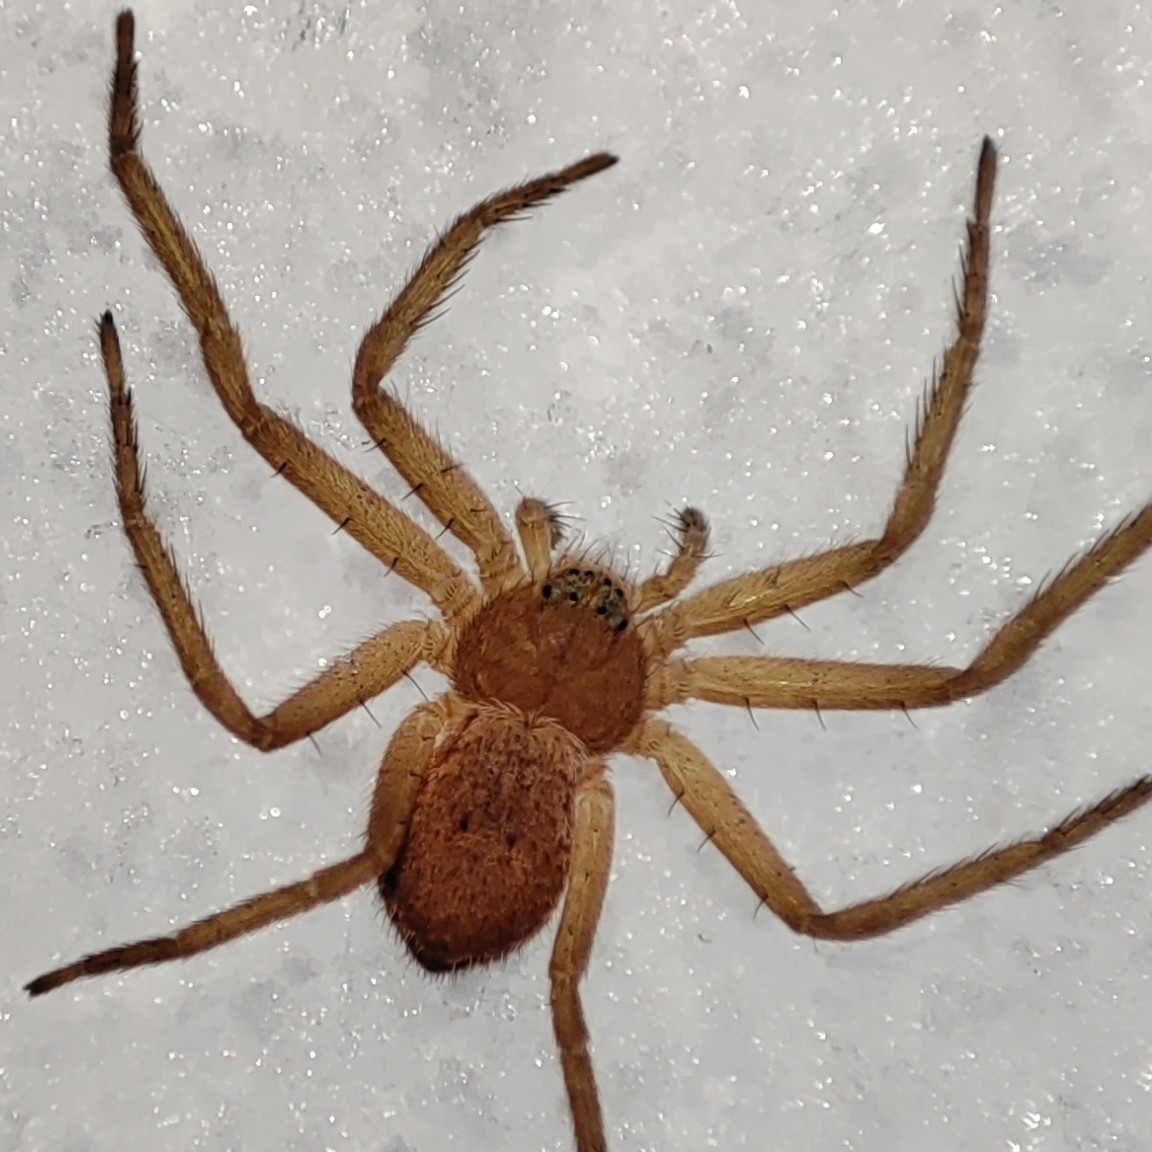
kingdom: Animalia
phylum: Arthropoda
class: Arachnida
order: Araneae
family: Philodromidae
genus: Philodromus
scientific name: Philodromus fuscomarginatus
